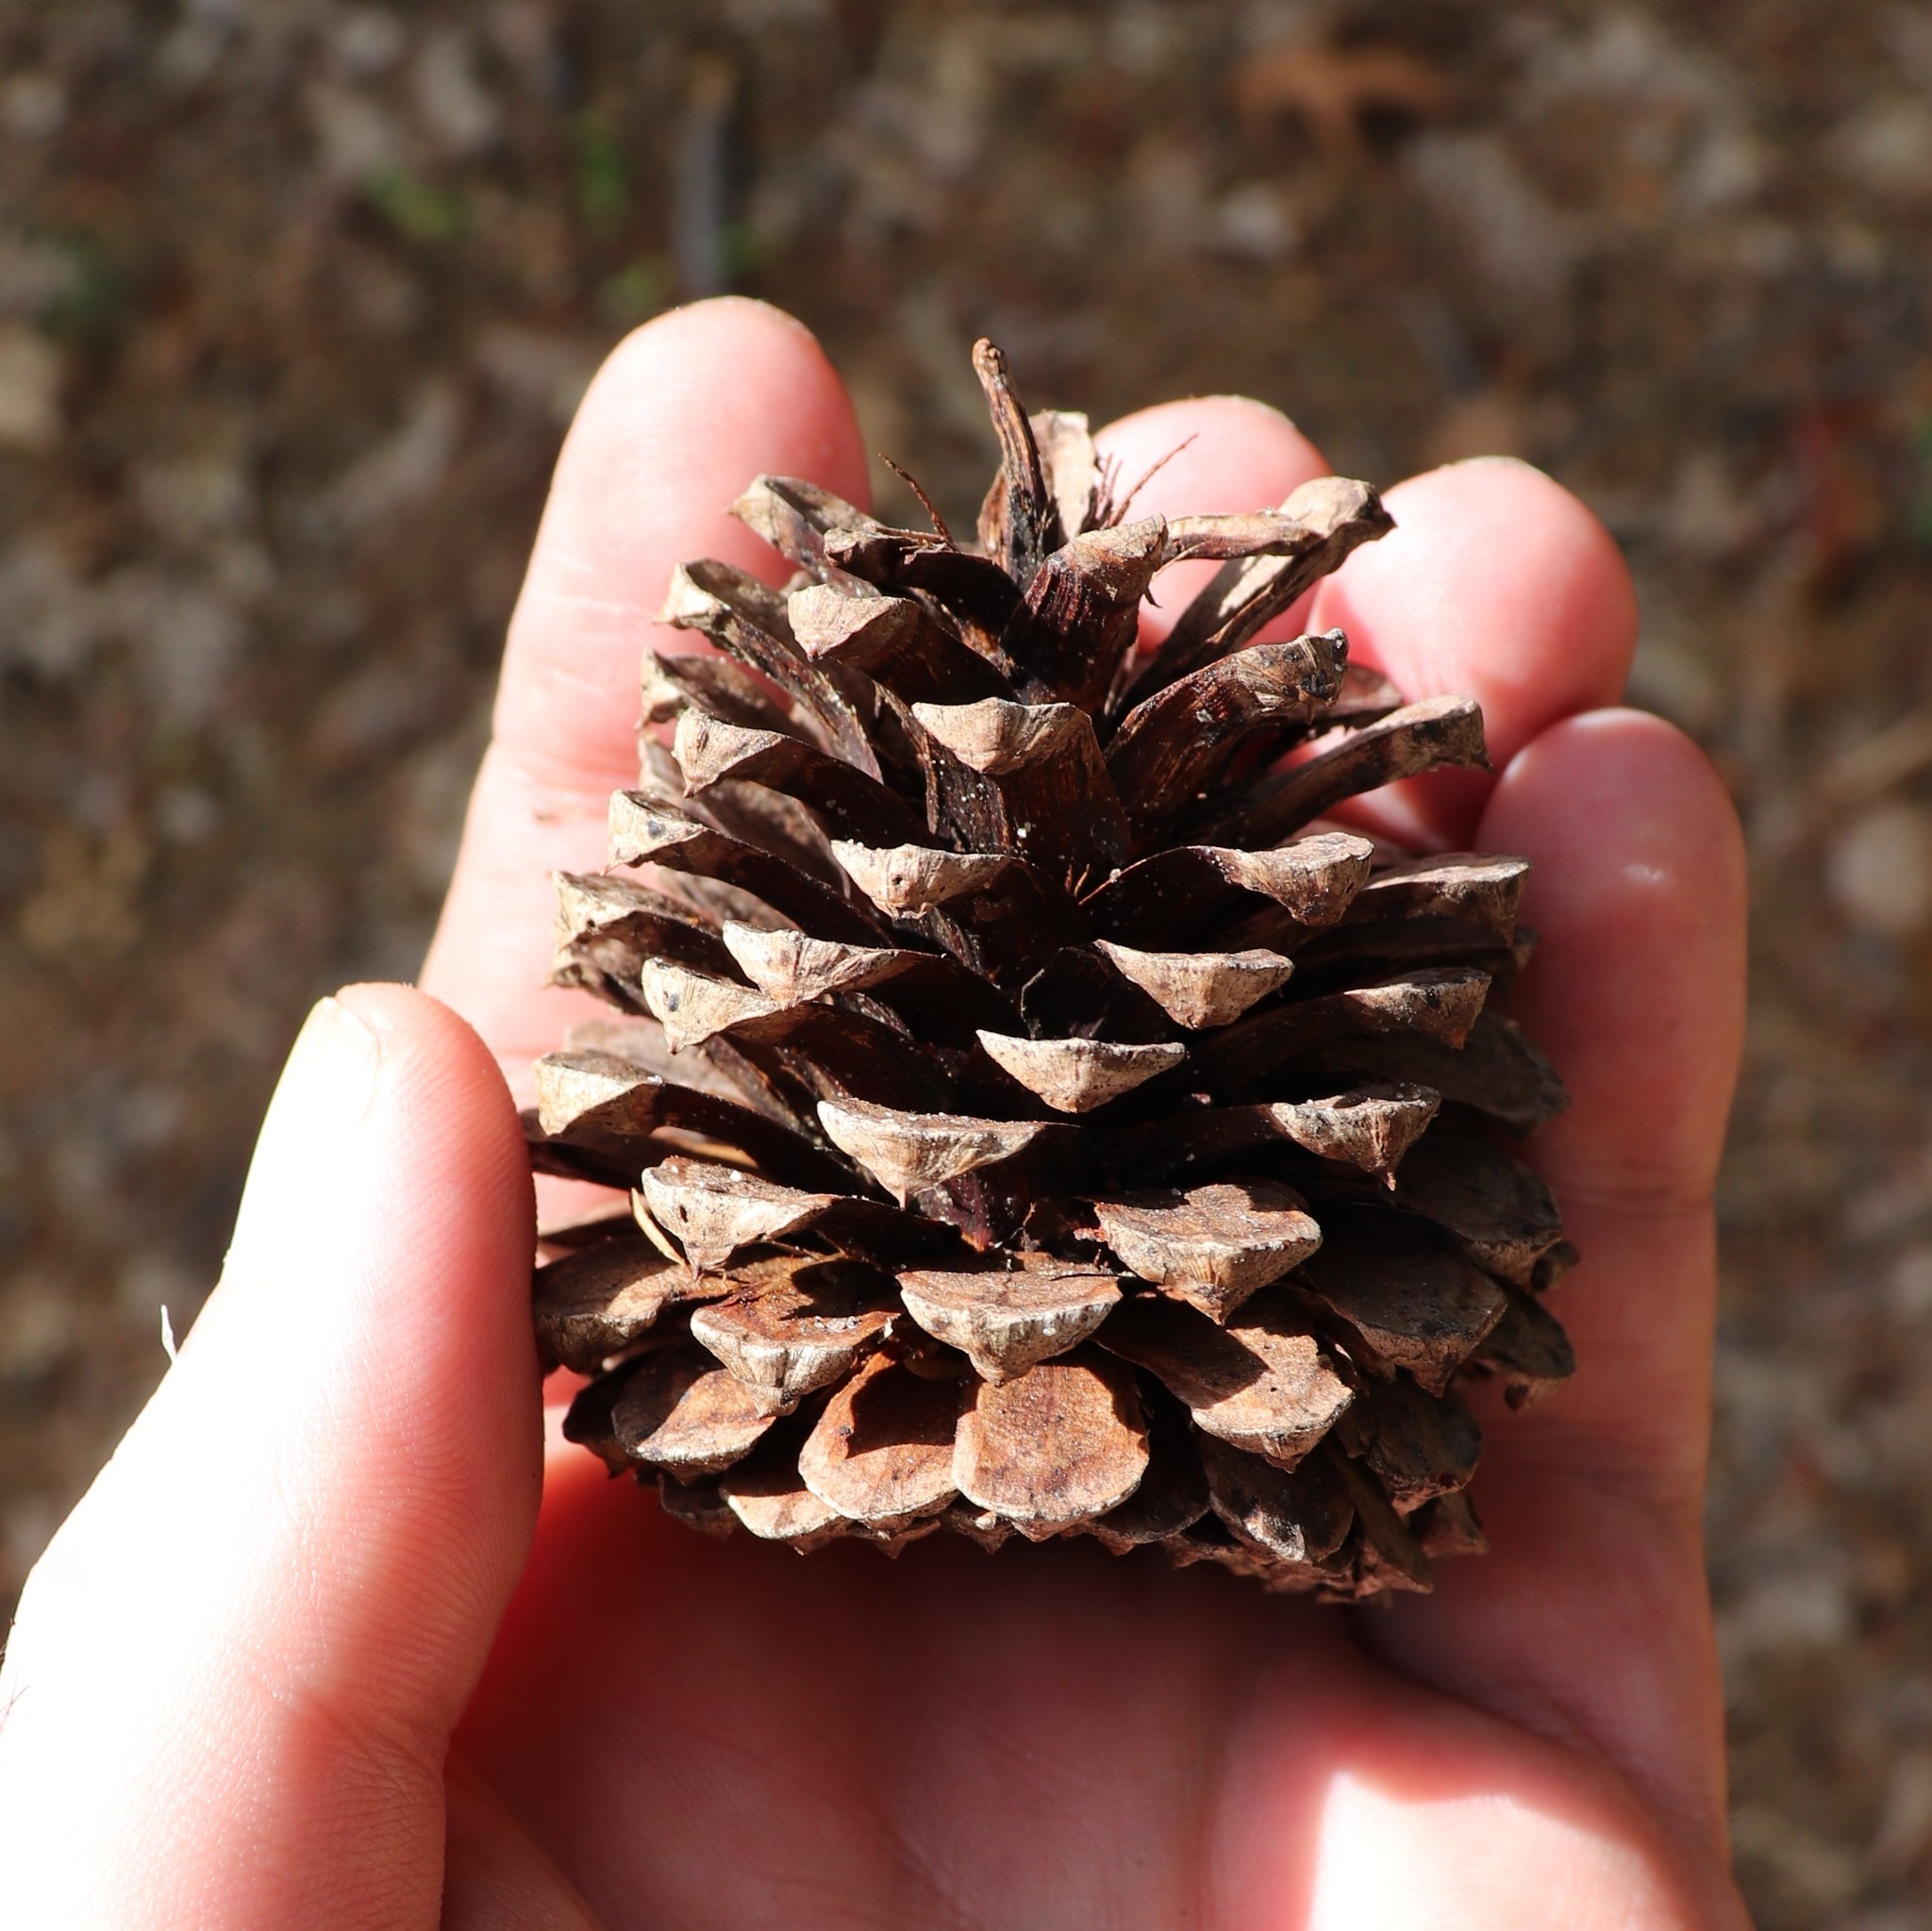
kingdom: Plantae
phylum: Tracheophyta
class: Pinopsida
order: Pinales
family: Pinaceae
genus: Pinus
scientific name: Pinus rigida
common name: Pitch pine
